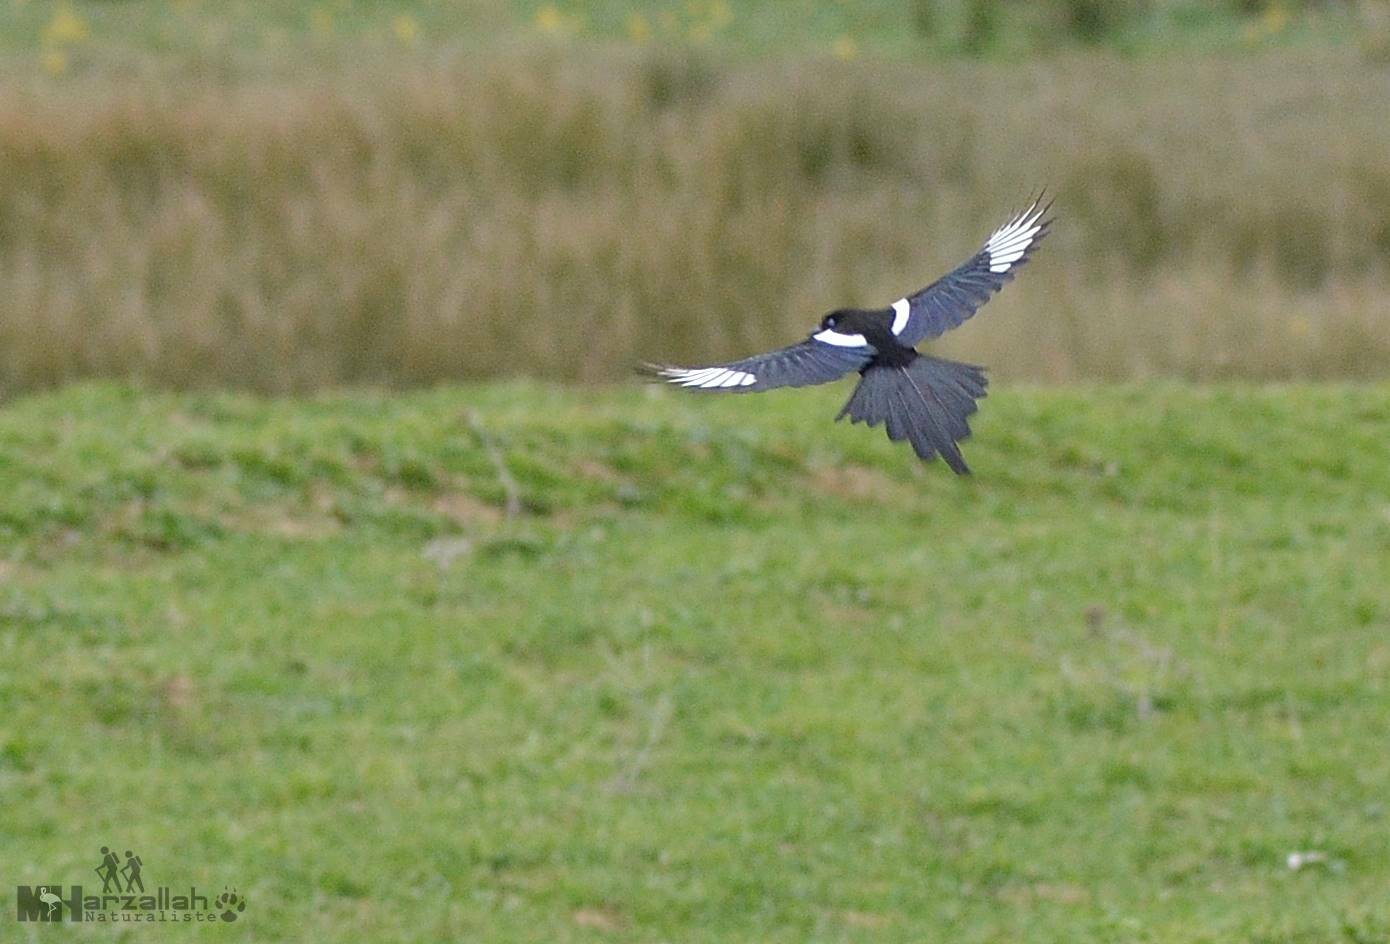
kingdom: Animalia
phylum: Chordata
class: Aves
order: Passeriformes
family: Corvidae
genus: Pica
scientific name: Pica mauritanica
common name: Maghreb magpie
